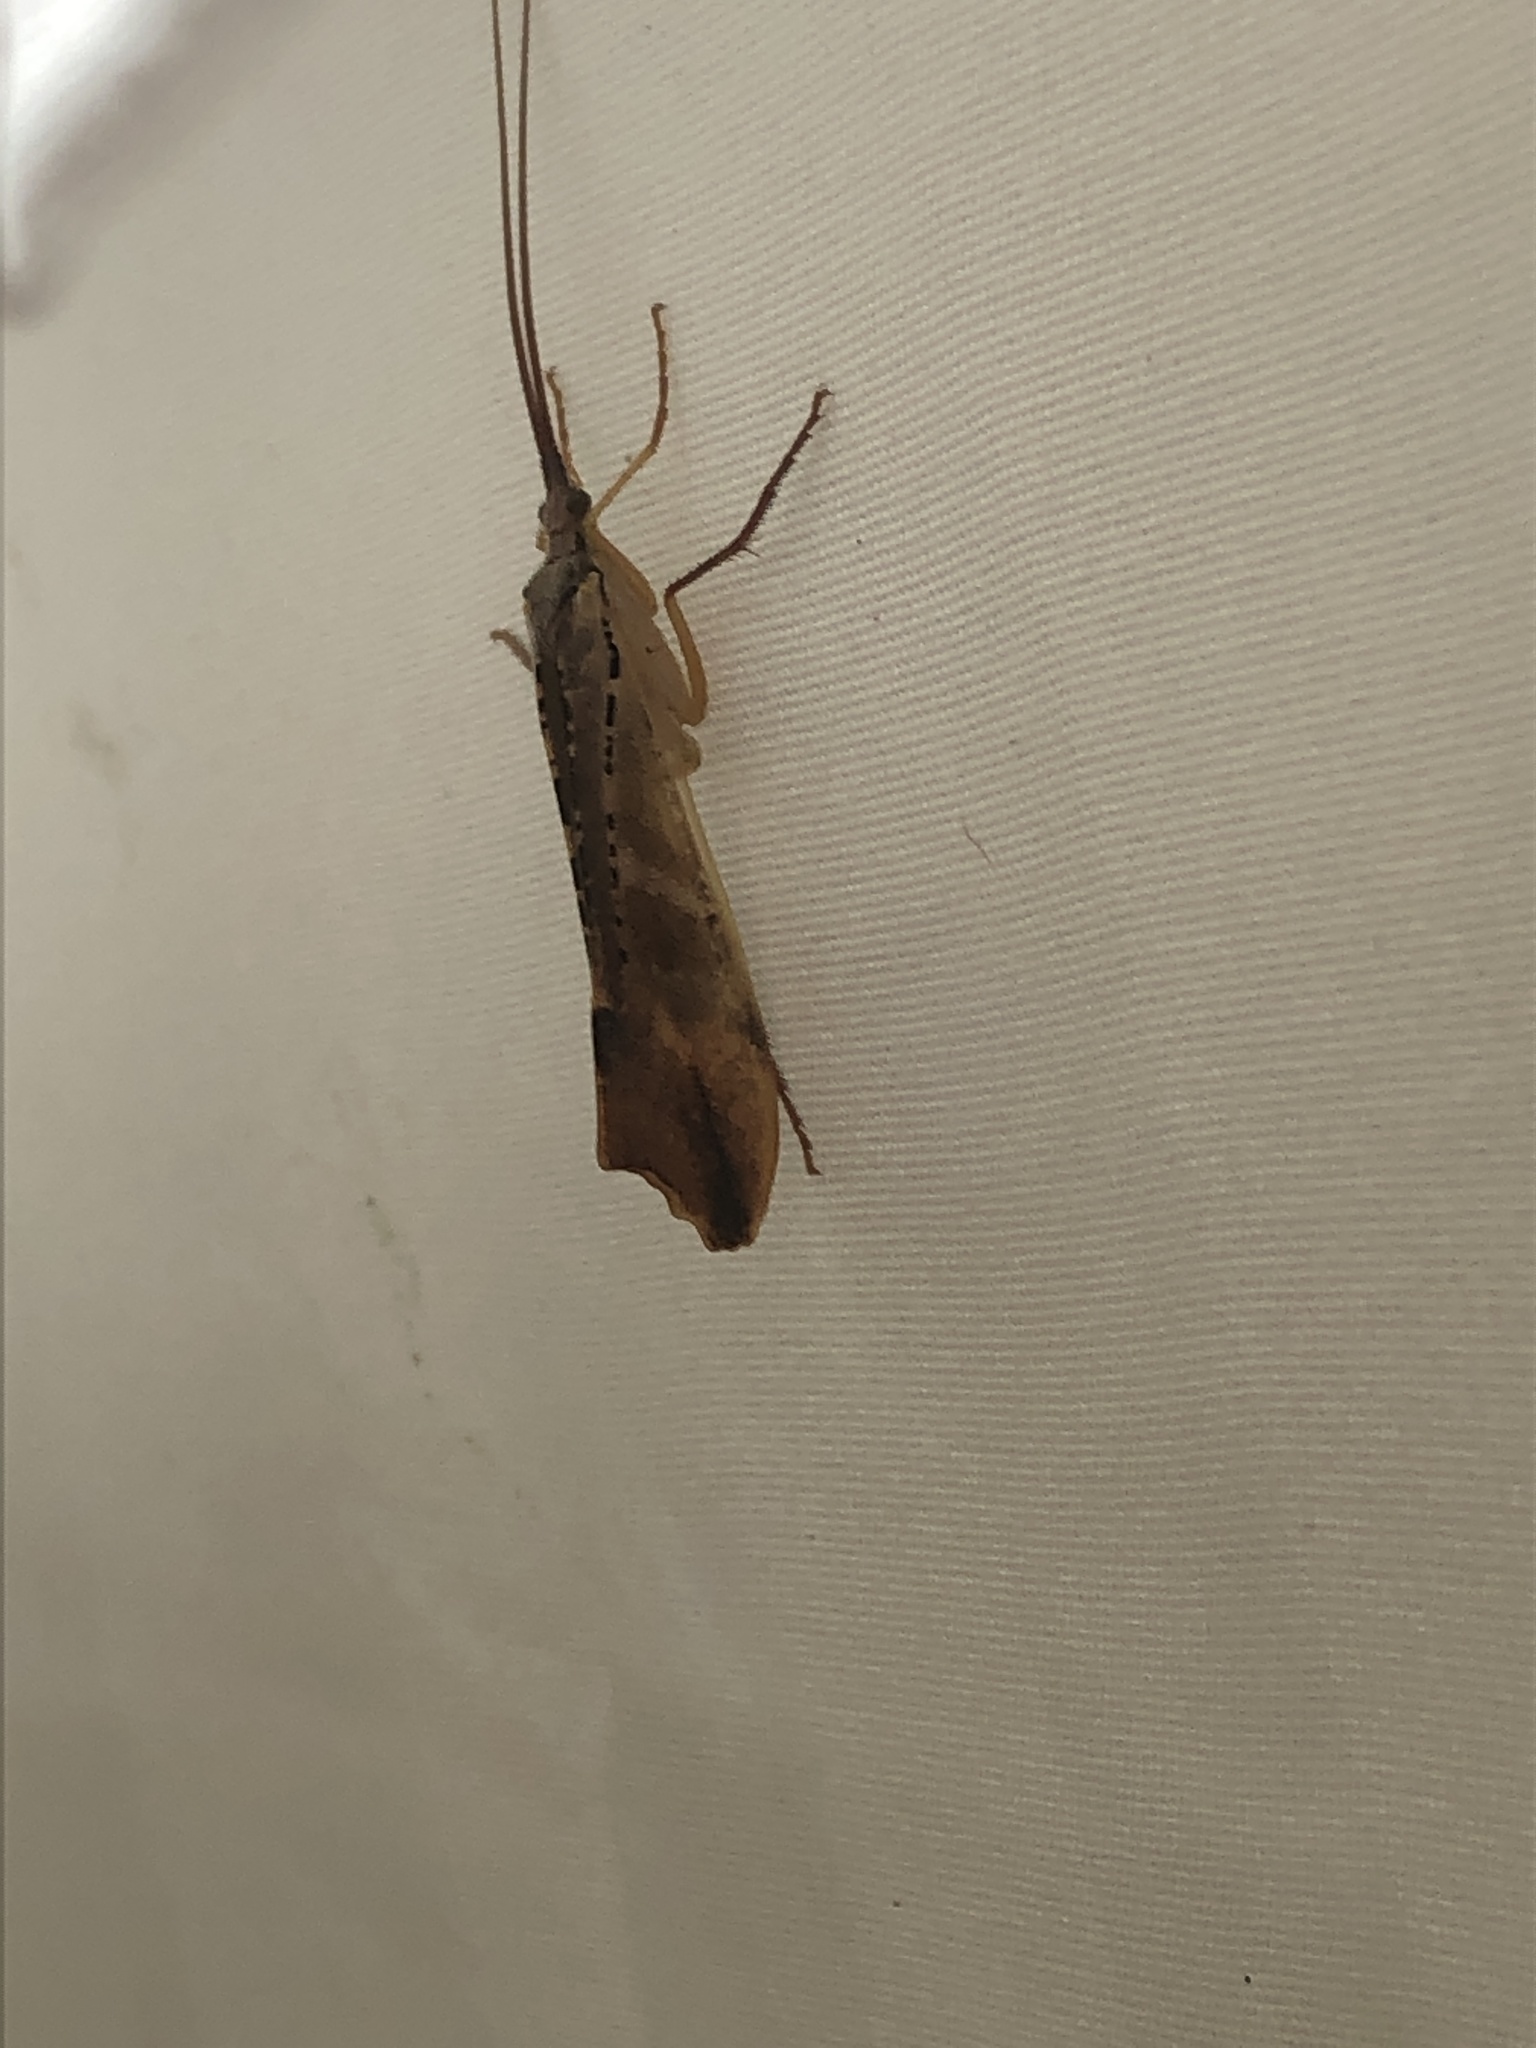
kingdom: Animalia
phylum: Arthropoda
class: Insecta
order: Trichoptera
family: Limnephilidae
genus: Nemotaulius
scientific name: Nemotaulius hostilis
